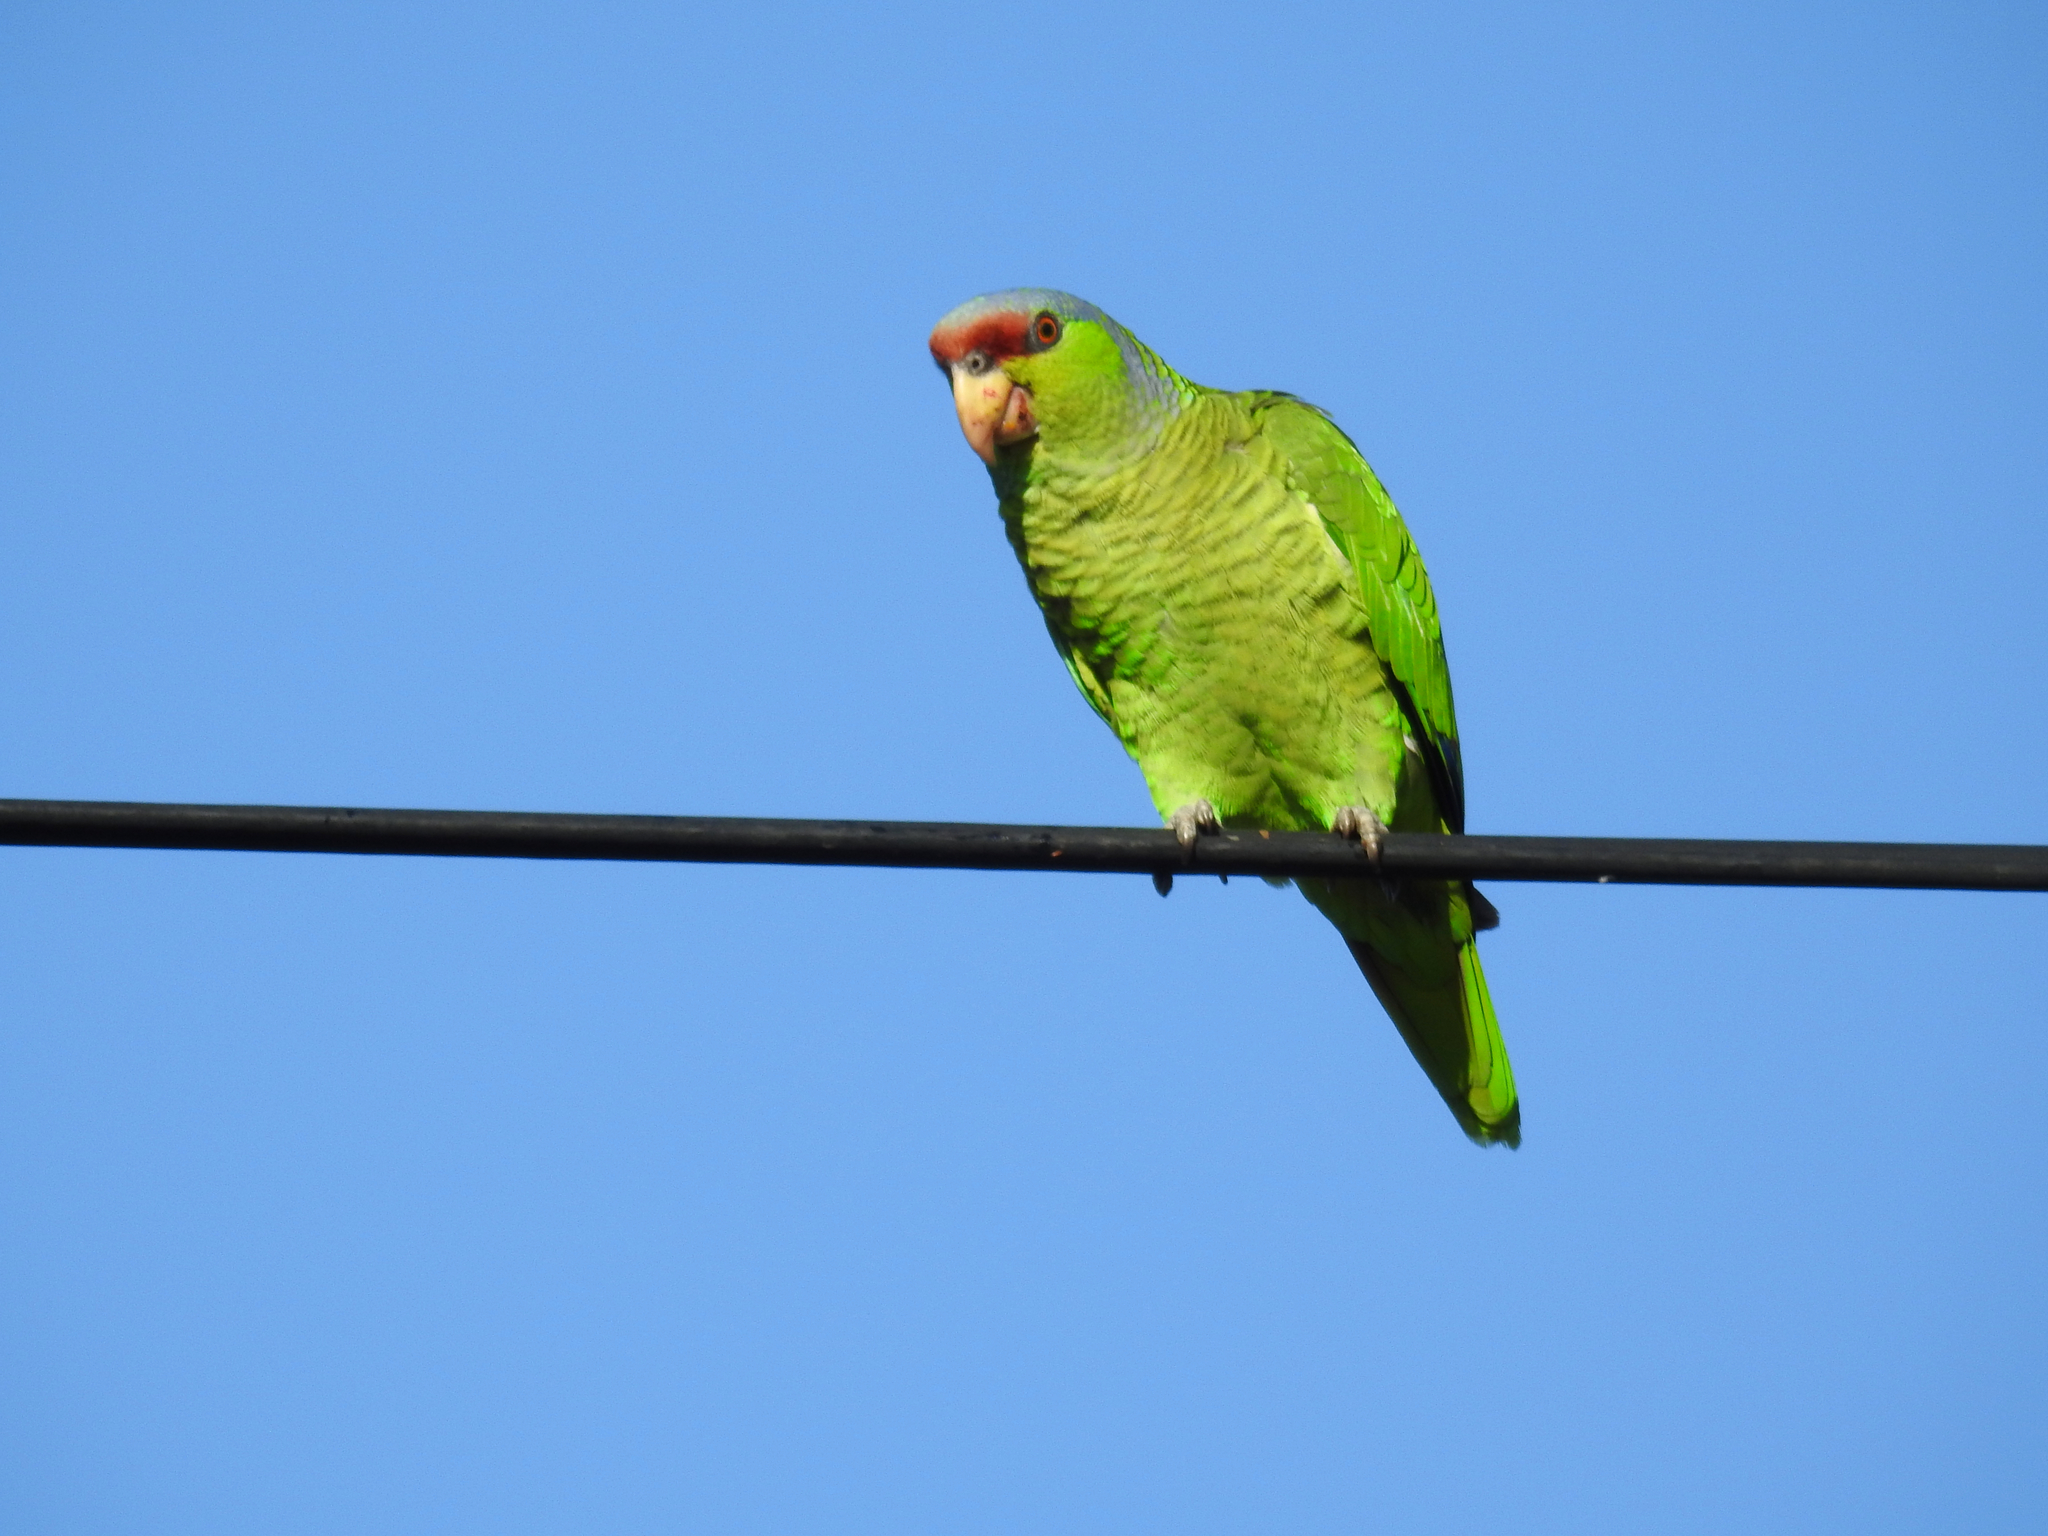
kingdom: Animalia
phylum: Chordata
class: Aves
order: Psittaciformes
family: Psittacidae
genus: Amazona
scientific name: Amazona finschi
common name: Lilac-crowned amazon
